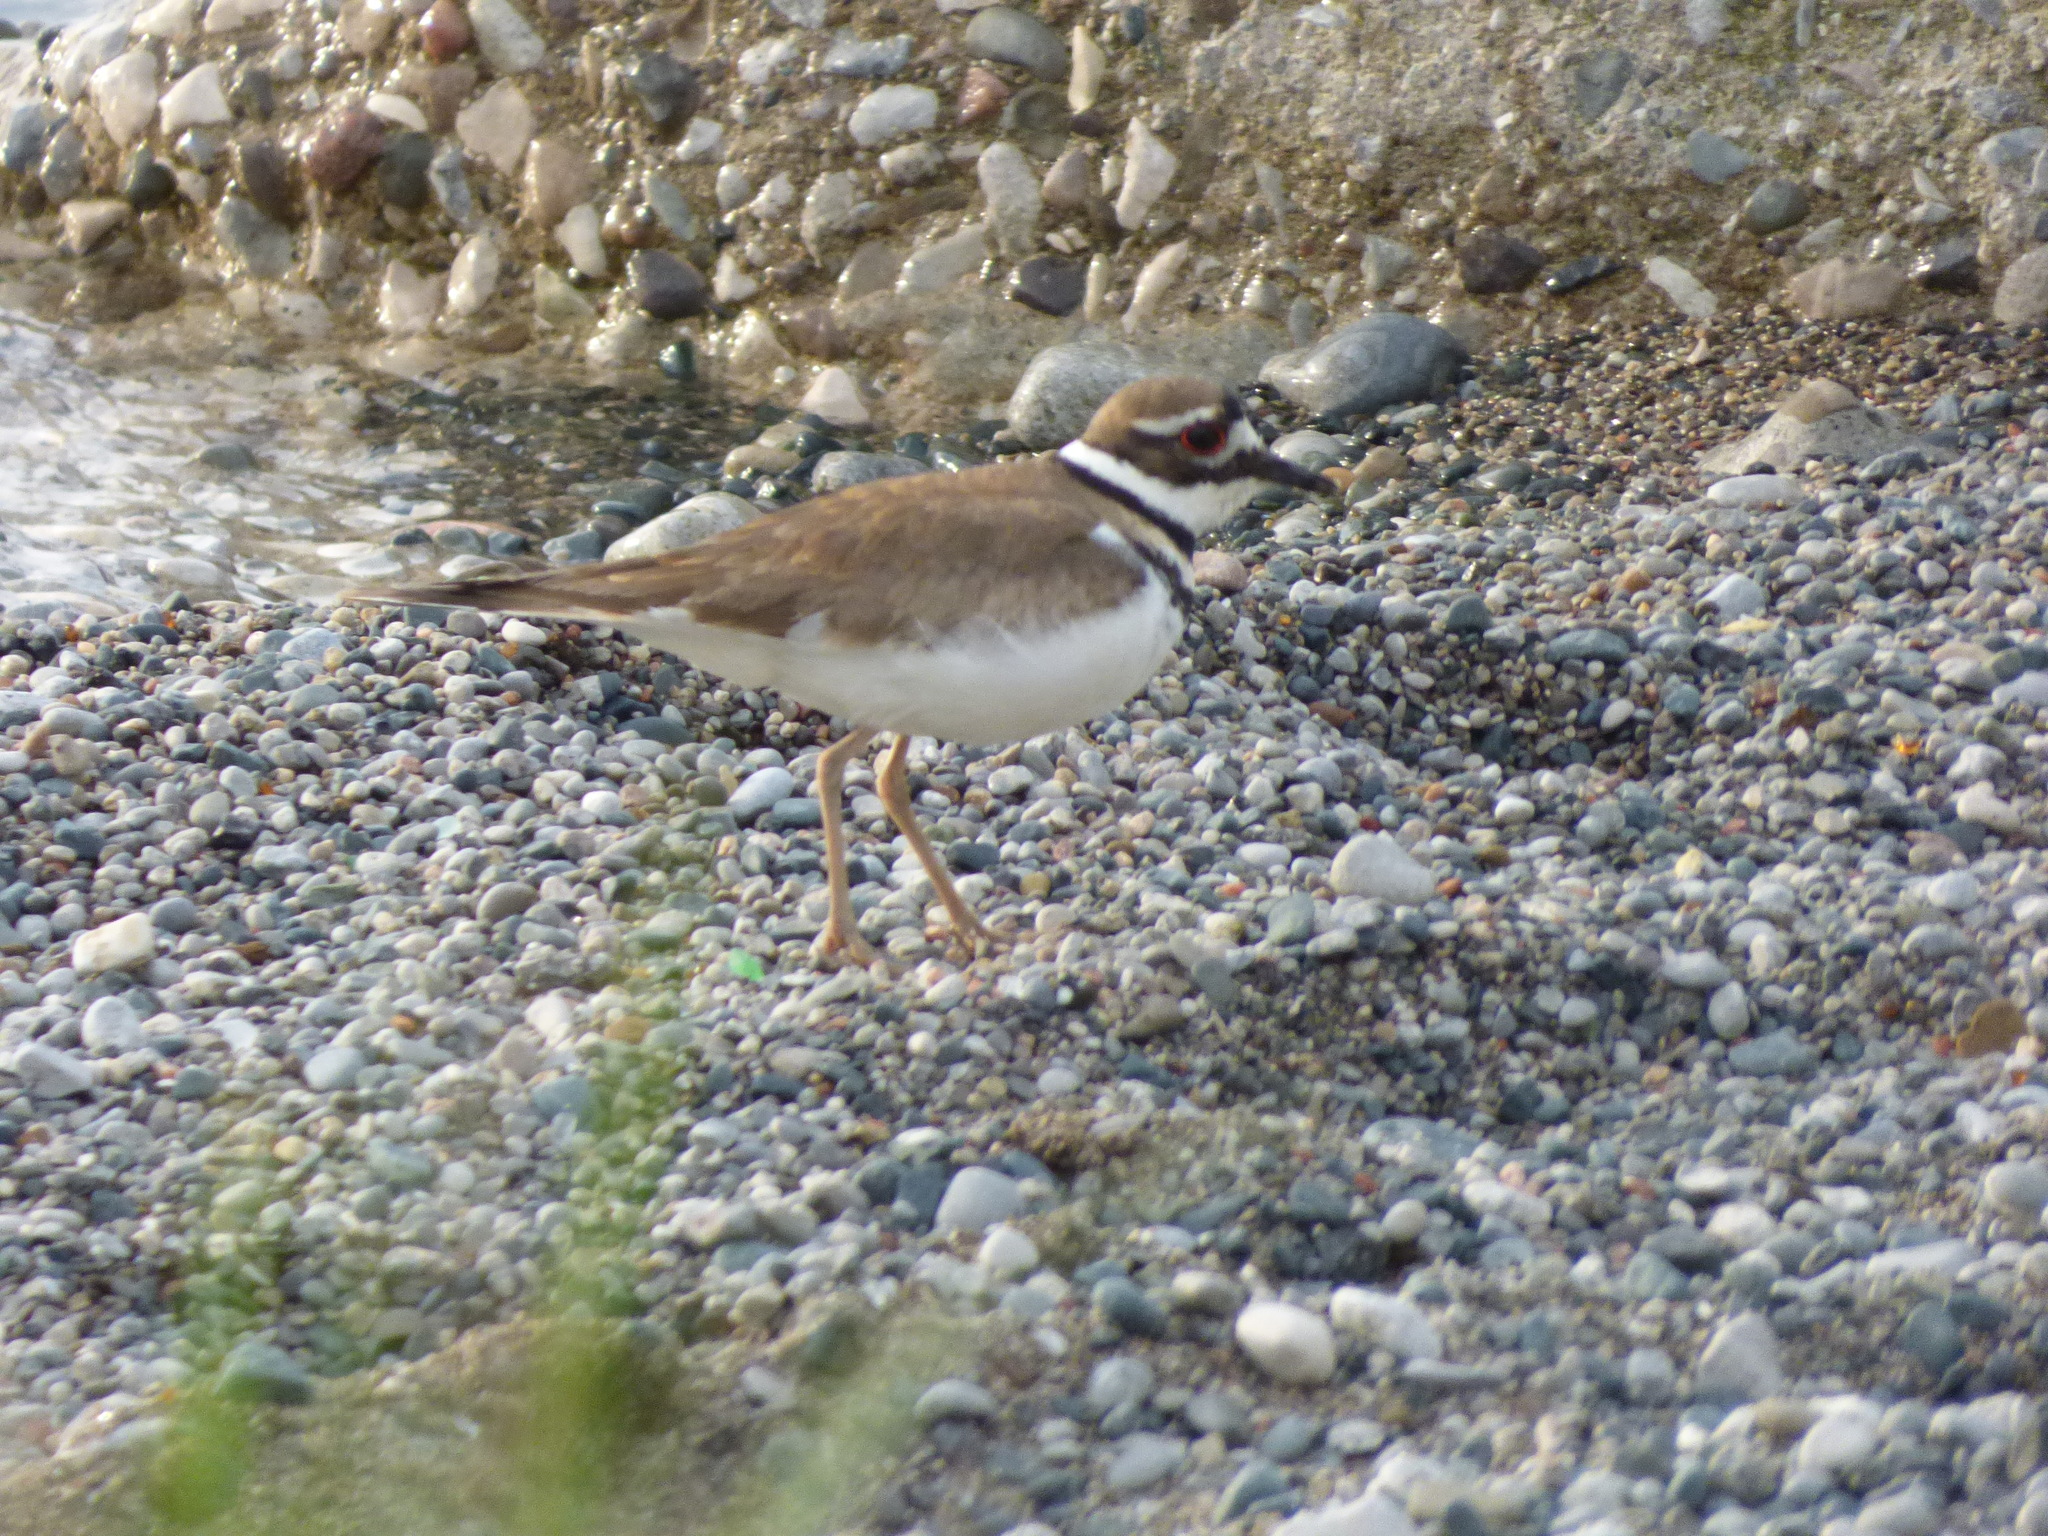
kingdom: Animalia
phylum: Chordata
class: Aves
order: Charadriiformes
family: Charadriidae
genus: Charadrius
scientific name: Charadrius vociferus
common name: Killdeer
